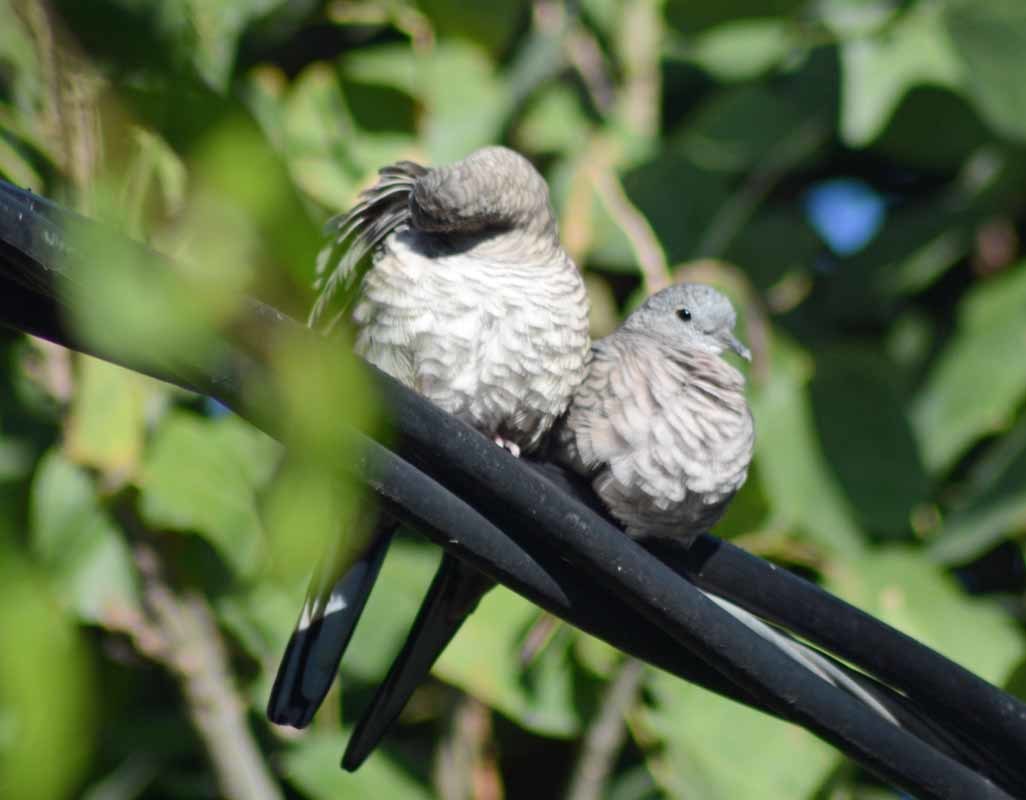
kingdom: Animalia
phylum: Chordata
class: Aves
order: Columbiformes
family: Columbidae
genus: Columbina
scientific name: Columbina inca
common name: Inca dove
